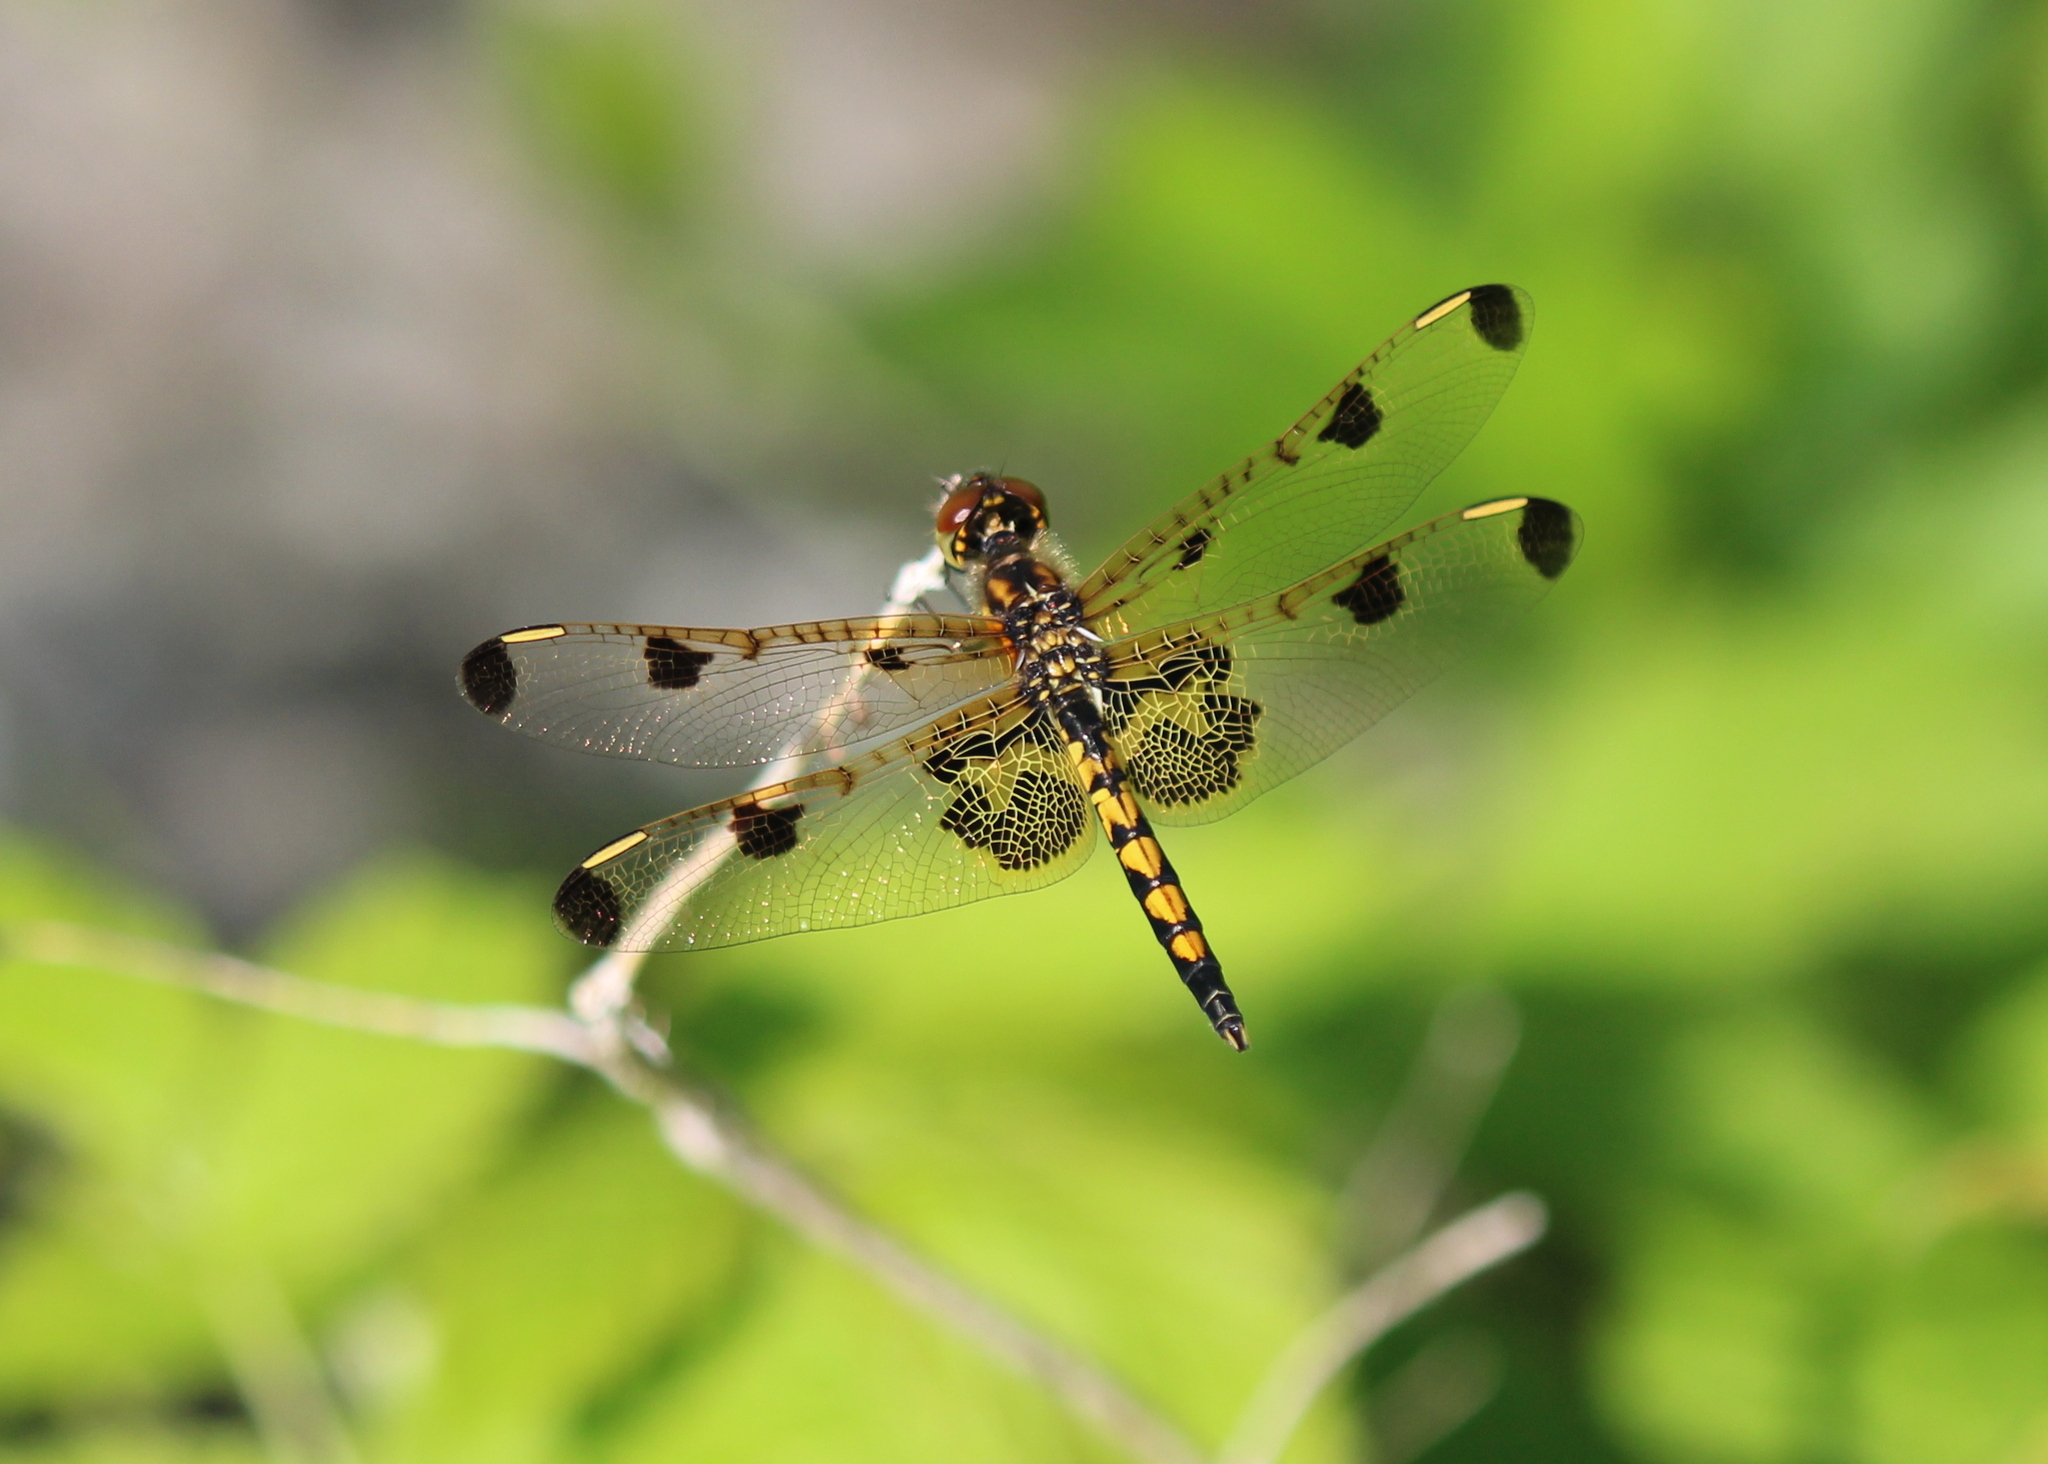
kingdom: Animalia
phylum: Arthropoda
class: Insecta
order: Odonata
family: Libellulidae
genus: Celithemis
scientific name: Celithemis elisa
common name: Calico pennant
